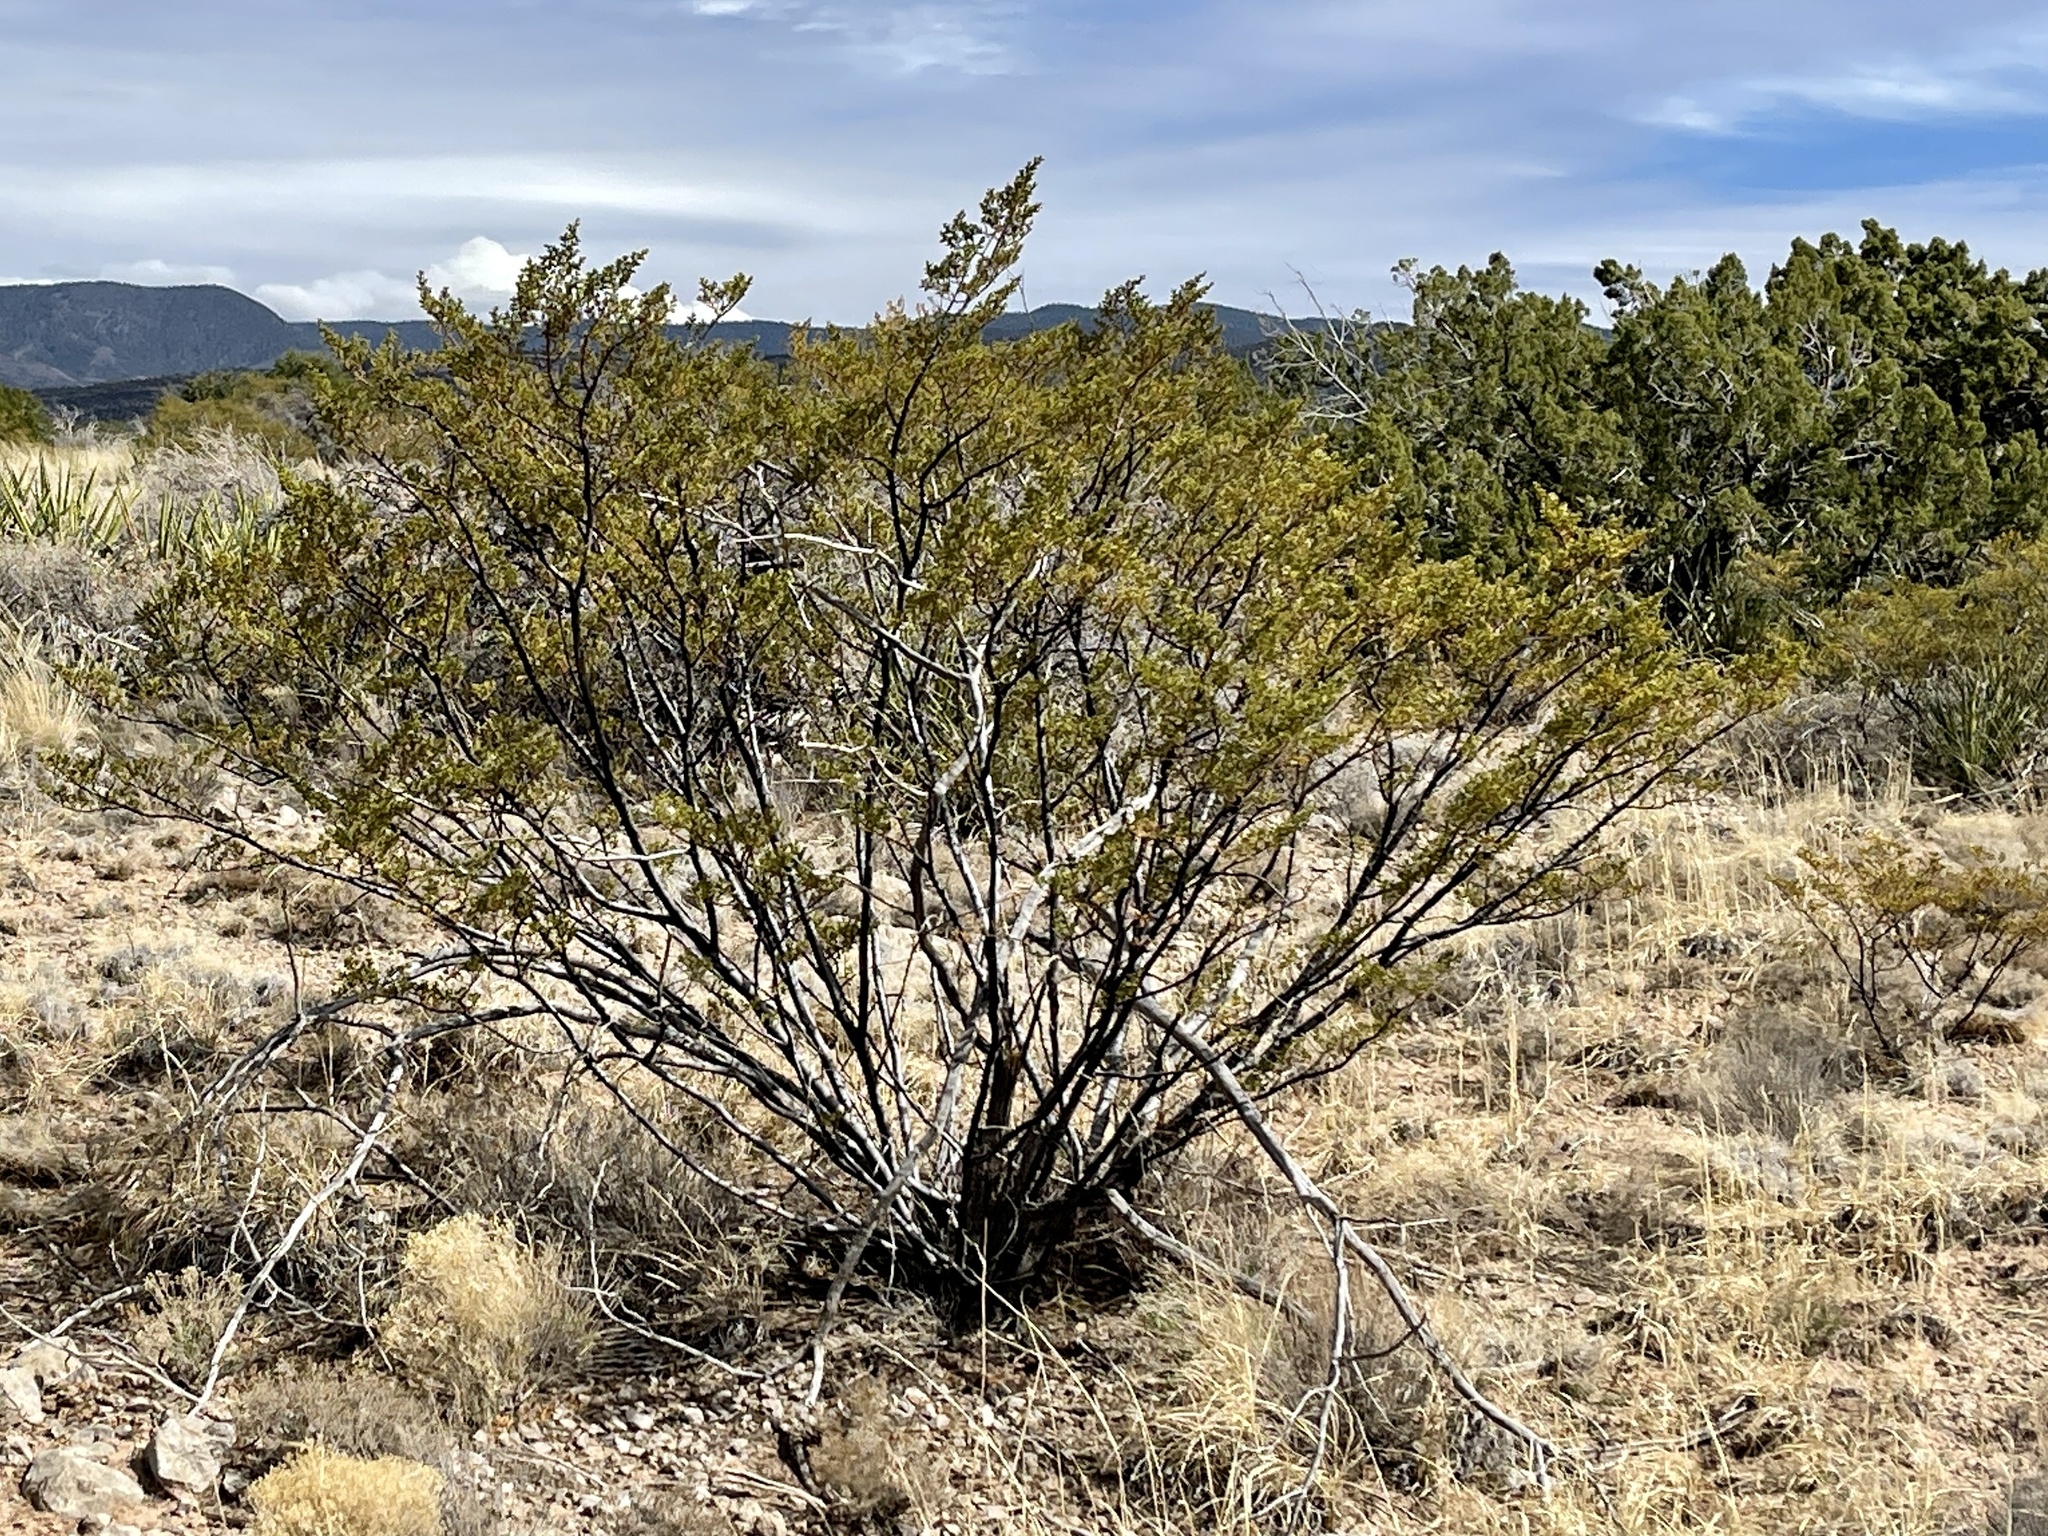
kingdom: Plantae
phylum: Tracheophyta
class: Magnoliopsida
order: Zygophyllales
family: Zygophyllaceae
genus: Larrea
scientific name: Larrea tridentata
